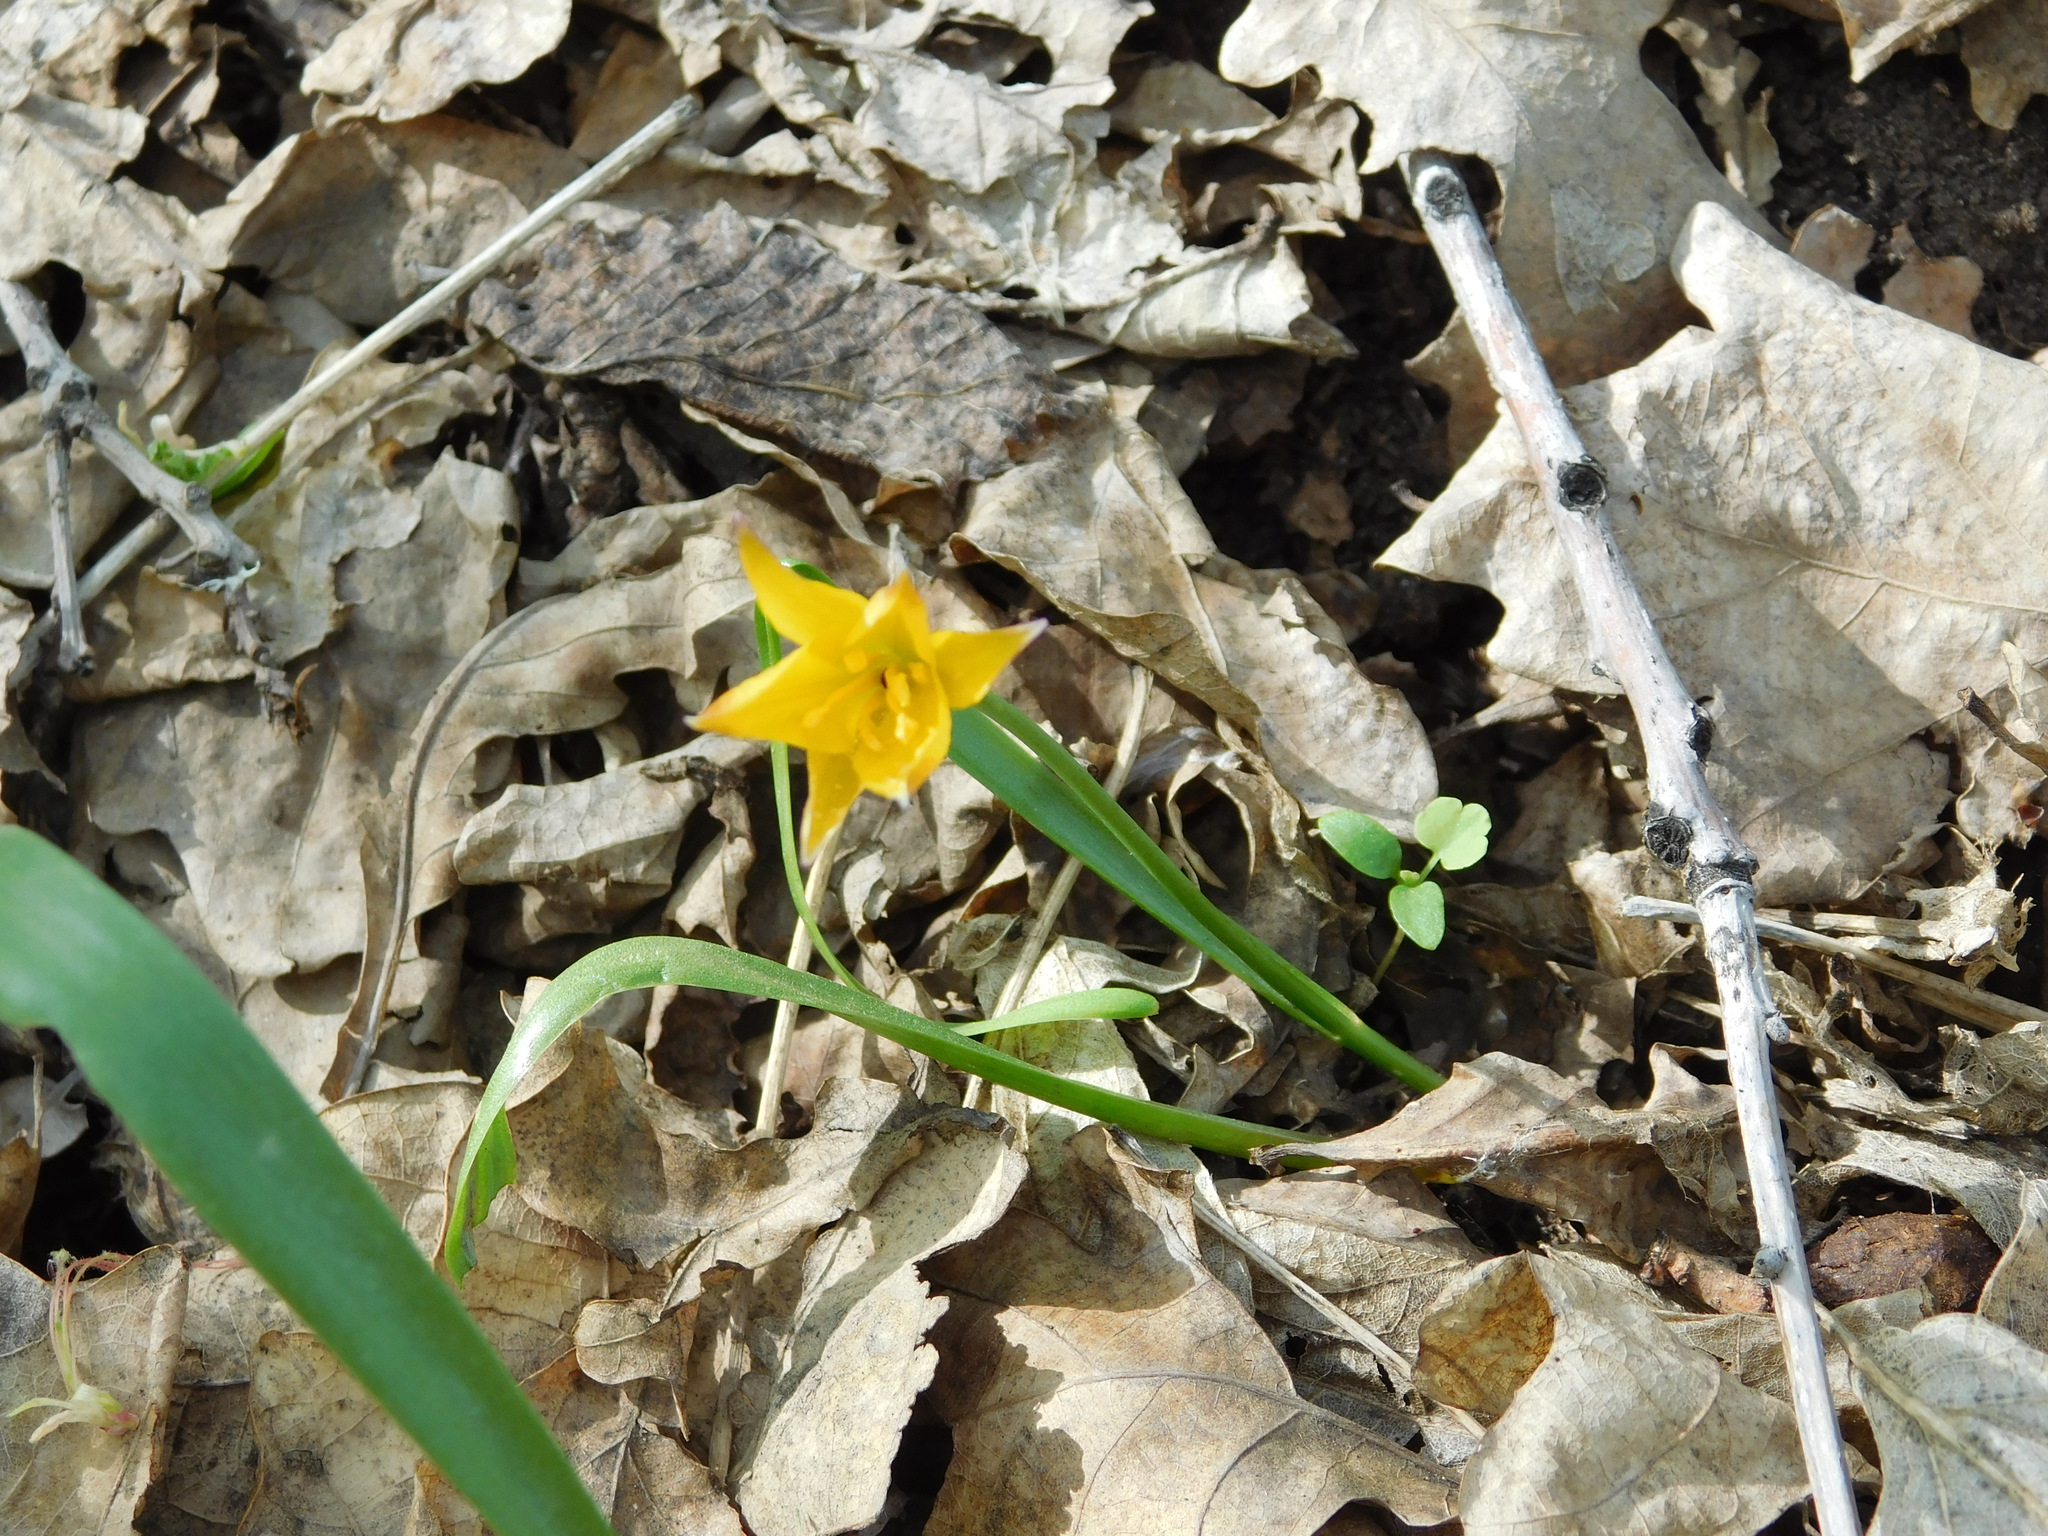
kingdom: Plantae
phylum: Tracheophyta
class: Liliopsida
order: Liliales
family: Liliaceae
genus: Tulipa
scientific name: Tulipa sylvestris
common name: Wild tulip
